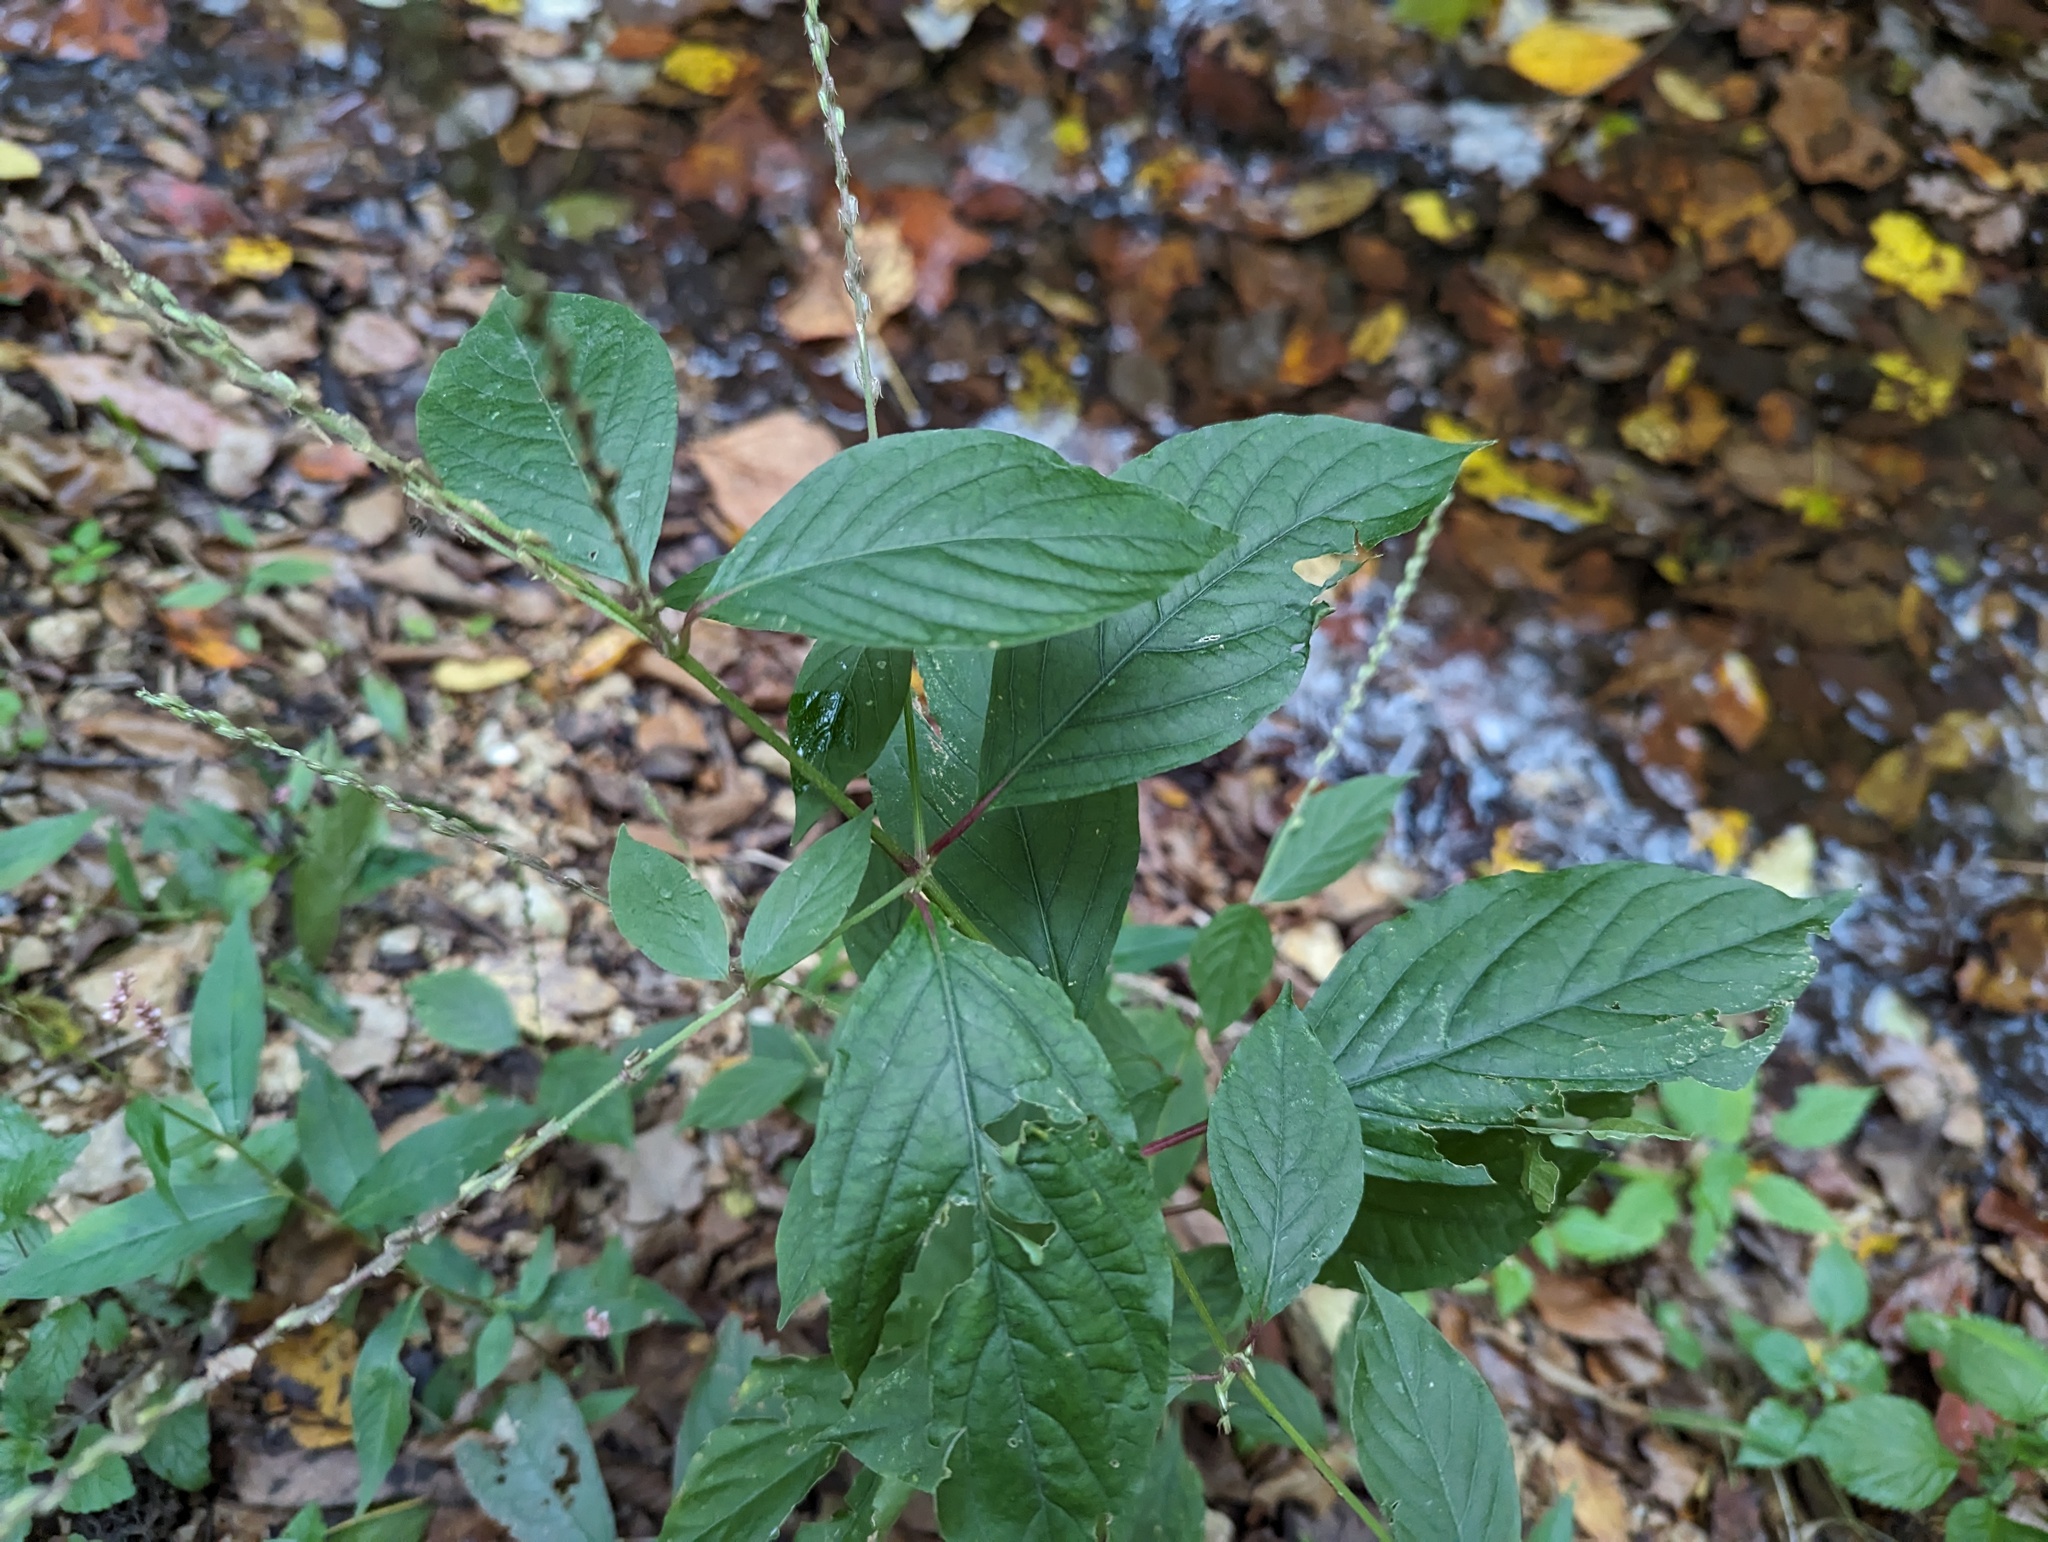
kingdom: Plantae
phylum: Tracheophyta
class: Magnoliopsida
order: Caryophyllales
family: Amaranthaceae
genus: Achyranthes
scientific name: Achyranthes bidentata
